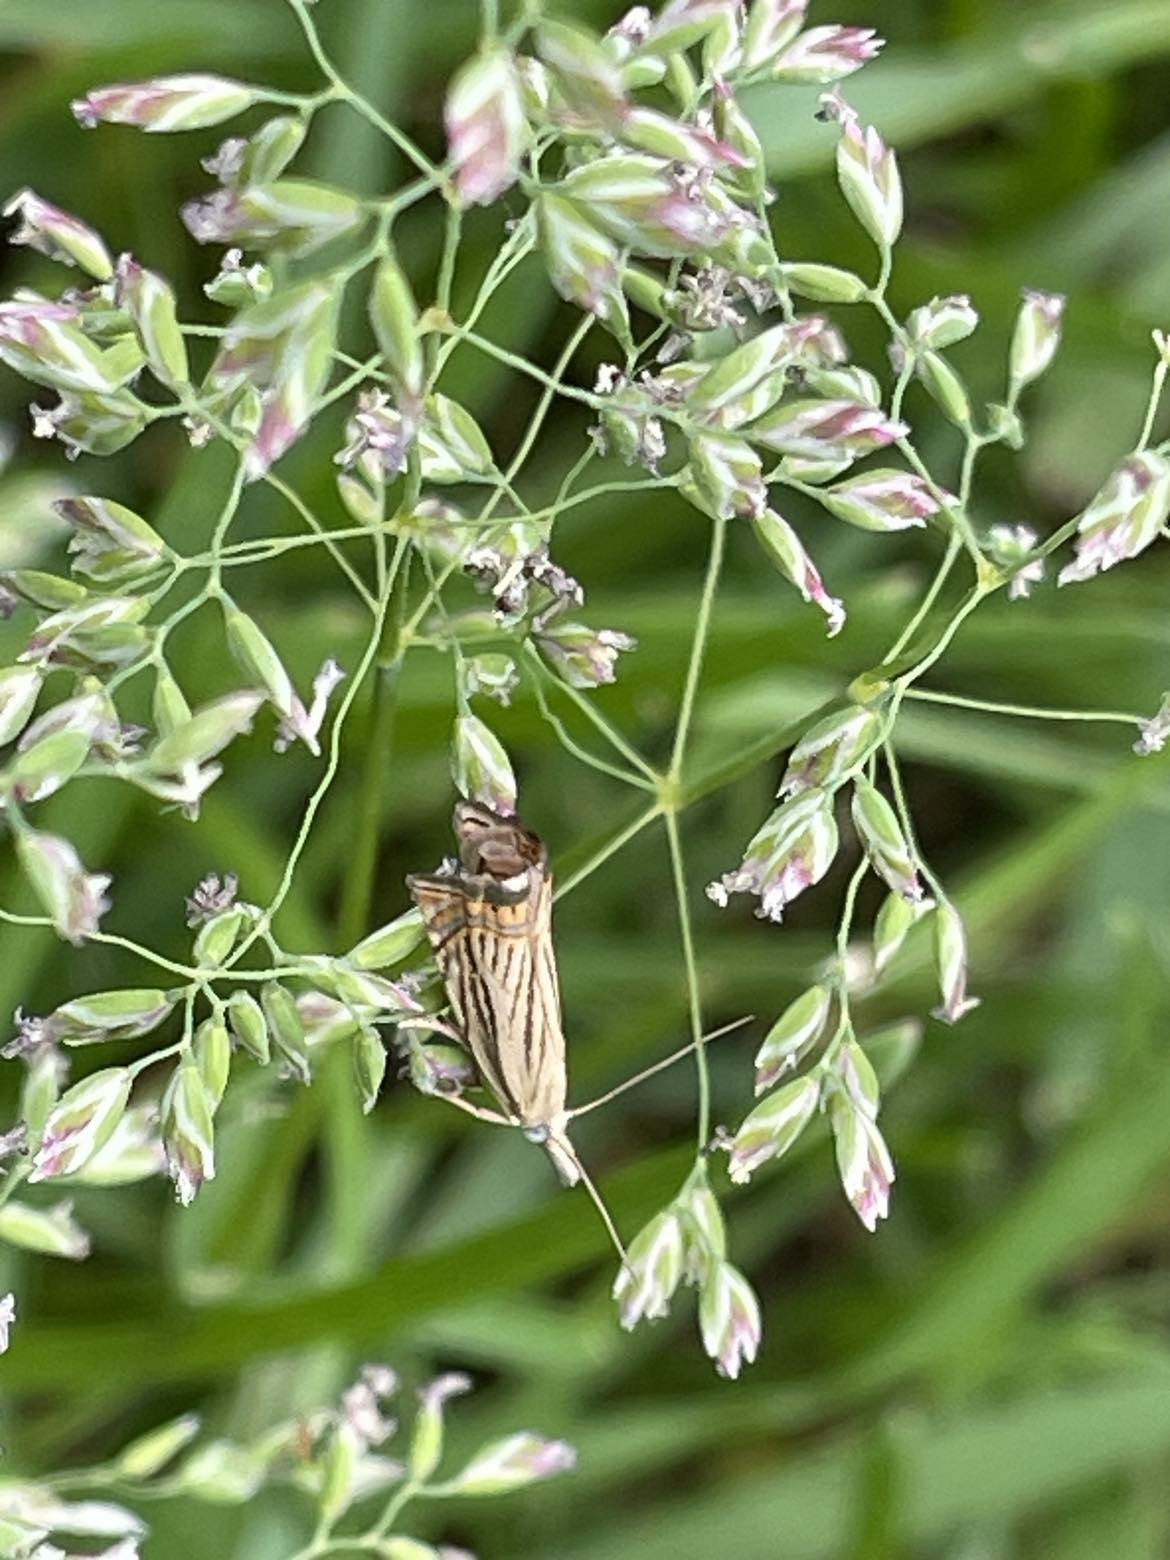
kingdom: Animalia
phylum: Arthropoda
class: Insecta
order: Lepidoptera
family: Crambidae
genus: Chrysoteuchia
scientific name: Chrysoteuchia topiarius
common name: Topiary grass-veneer
